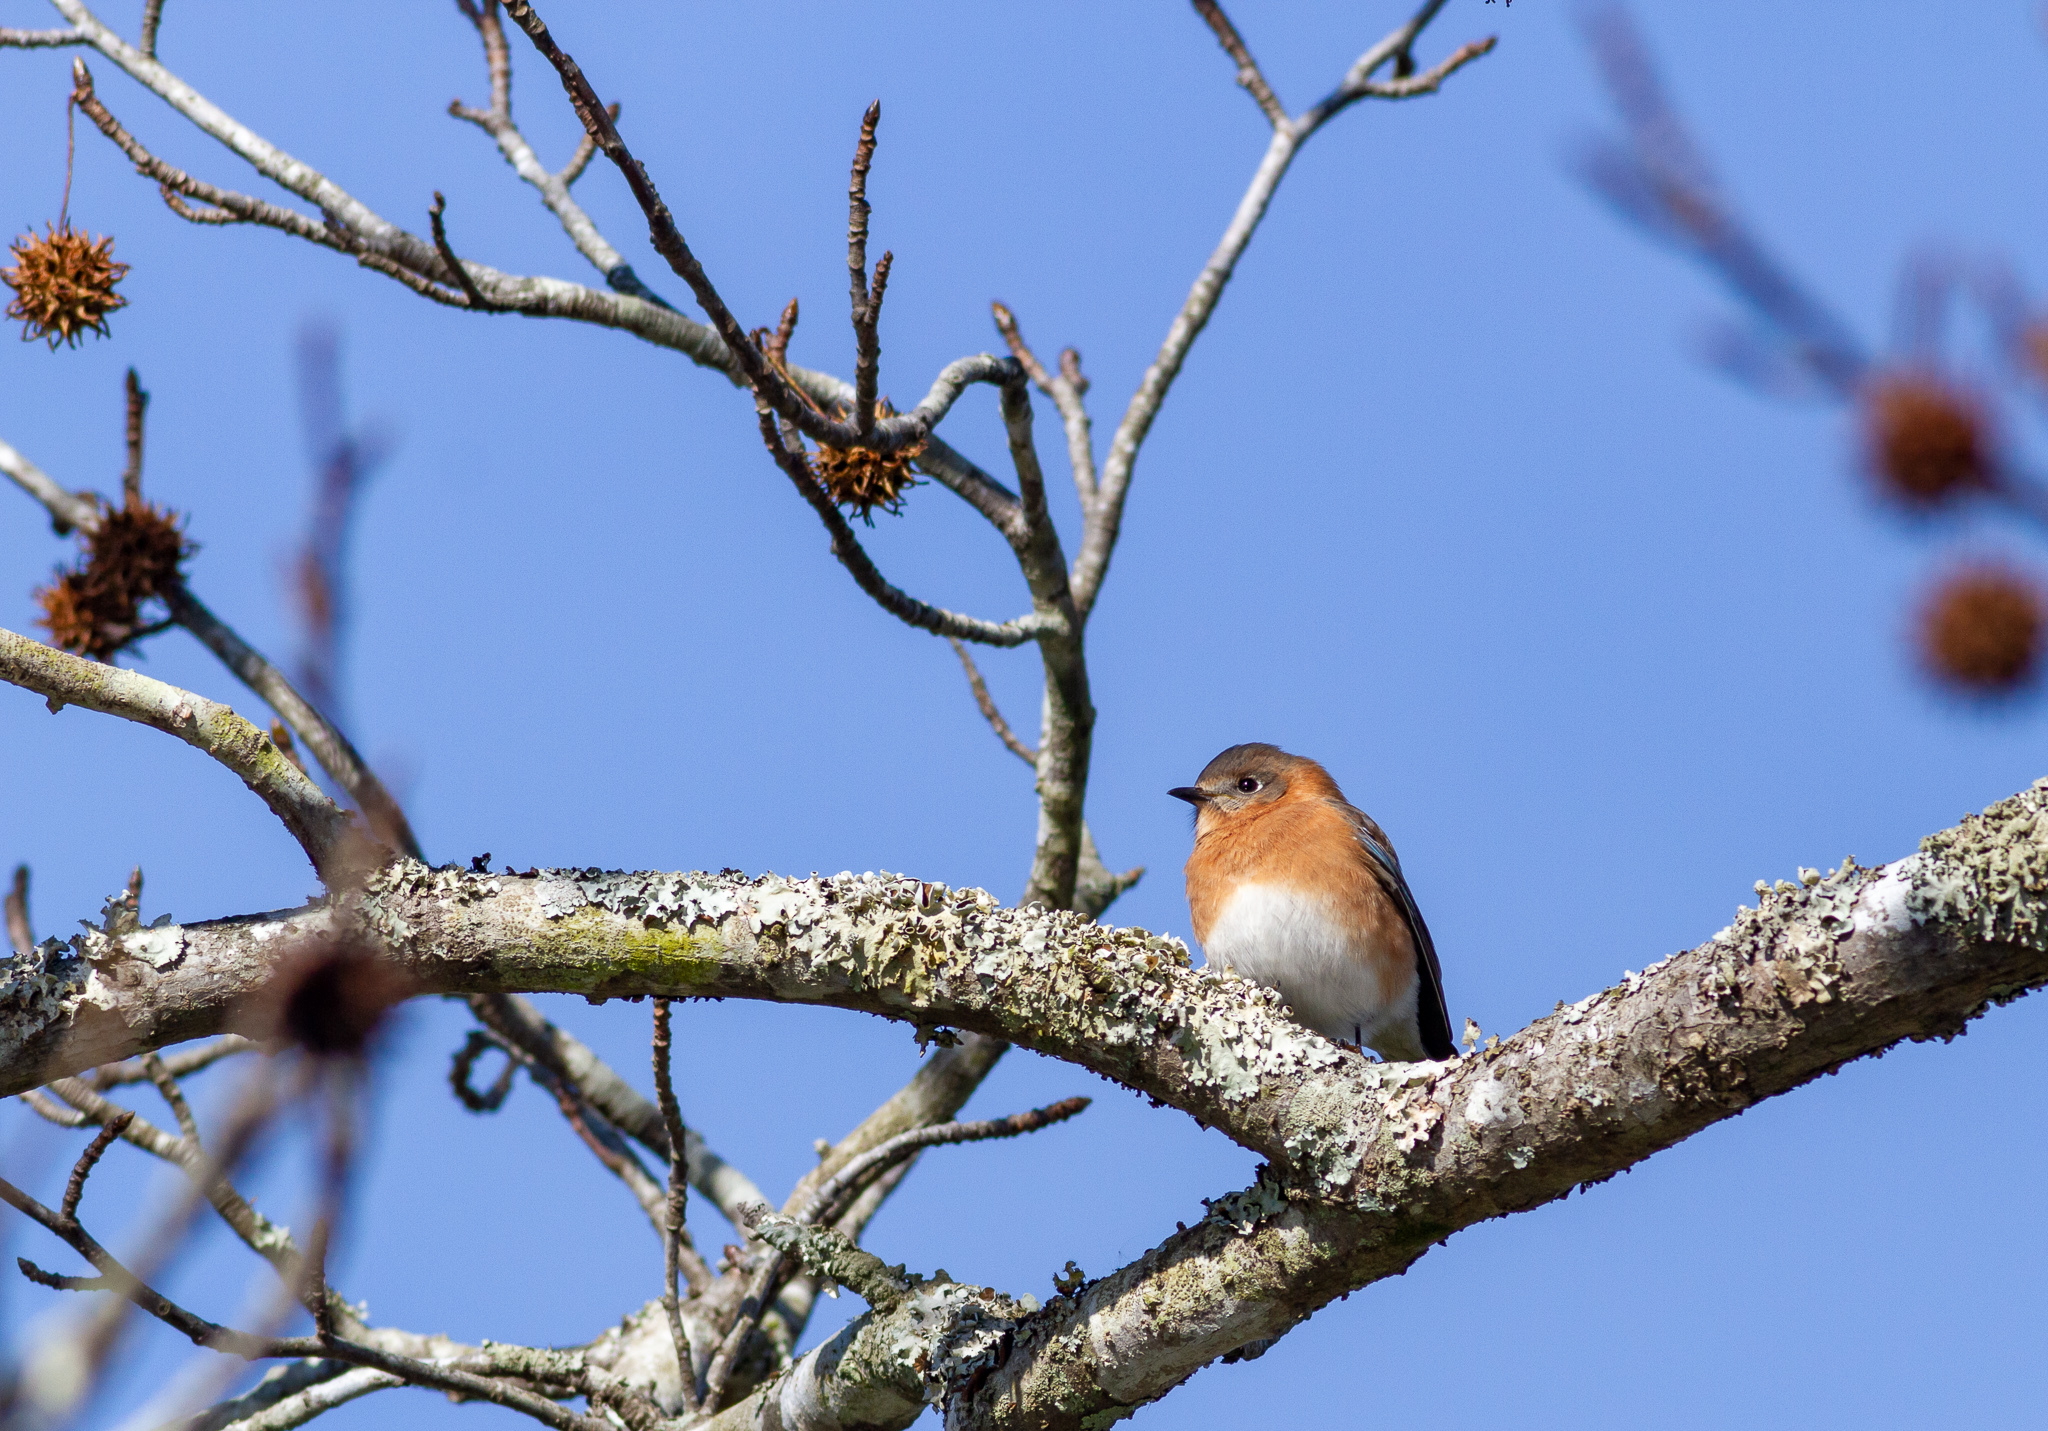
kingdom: Animalia
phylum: Chordata
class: Aves
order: Passeriformes
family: Turdidae
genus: Sialia
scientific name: Sialia sialis
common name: Eastern bluebird
